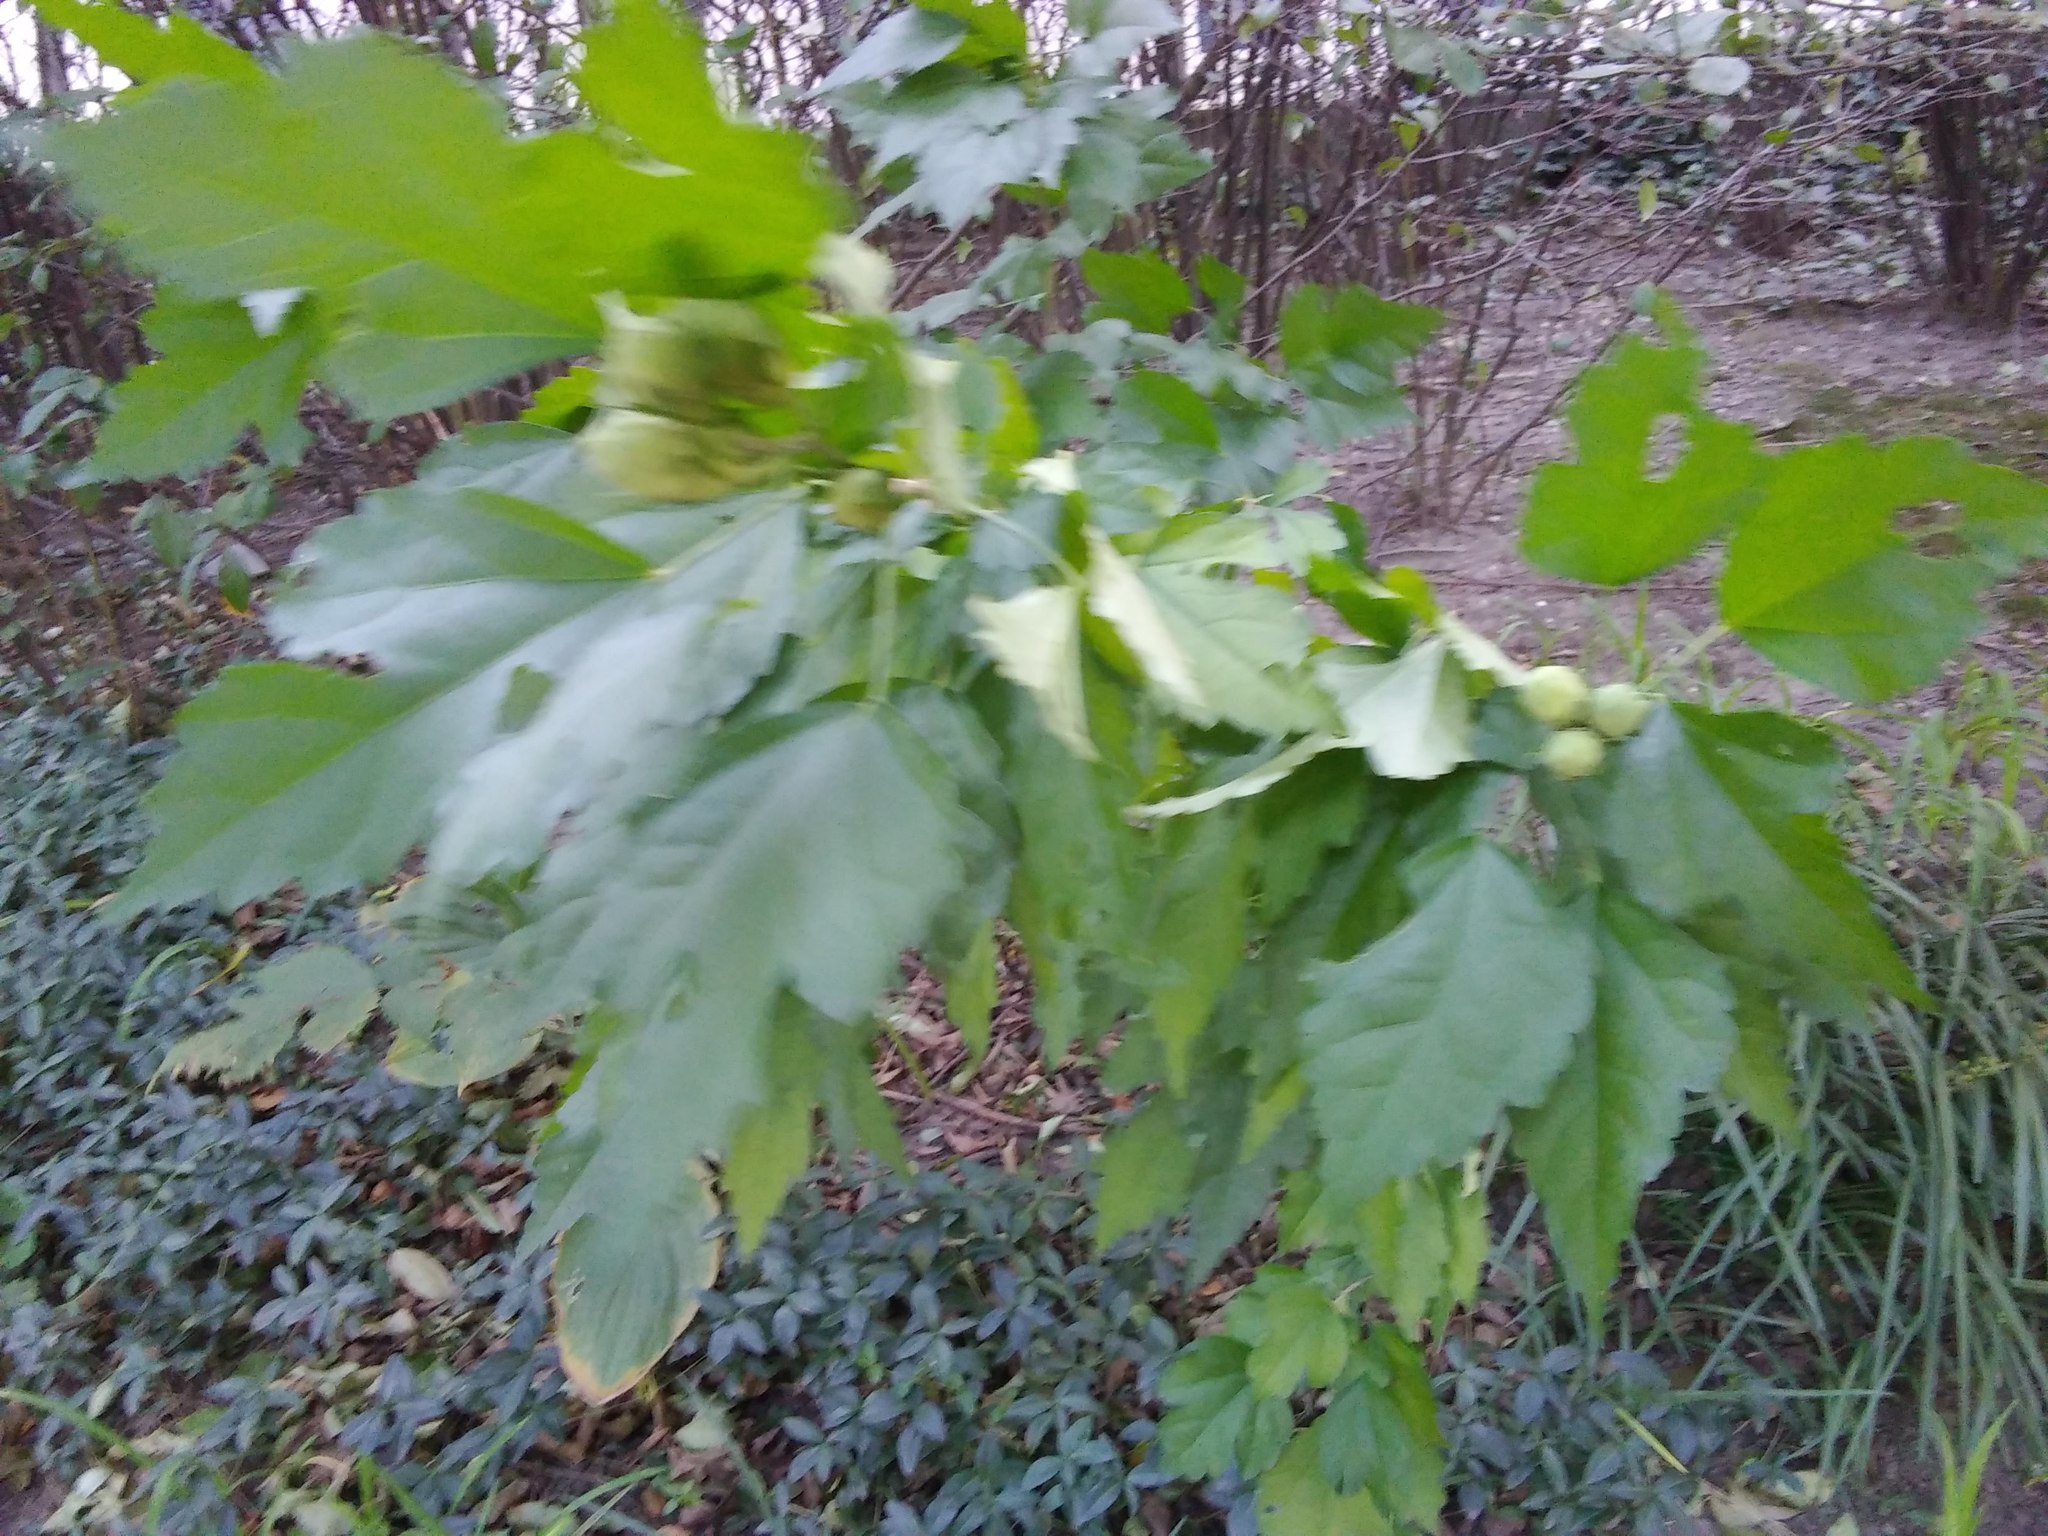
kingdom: Plantae
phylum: Tracheophyta
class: Magnoliopsida
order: Malvales
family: Malvaceae
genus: Hibiscus
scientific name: Hibiscus syriacus
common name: Syrian ketmia
